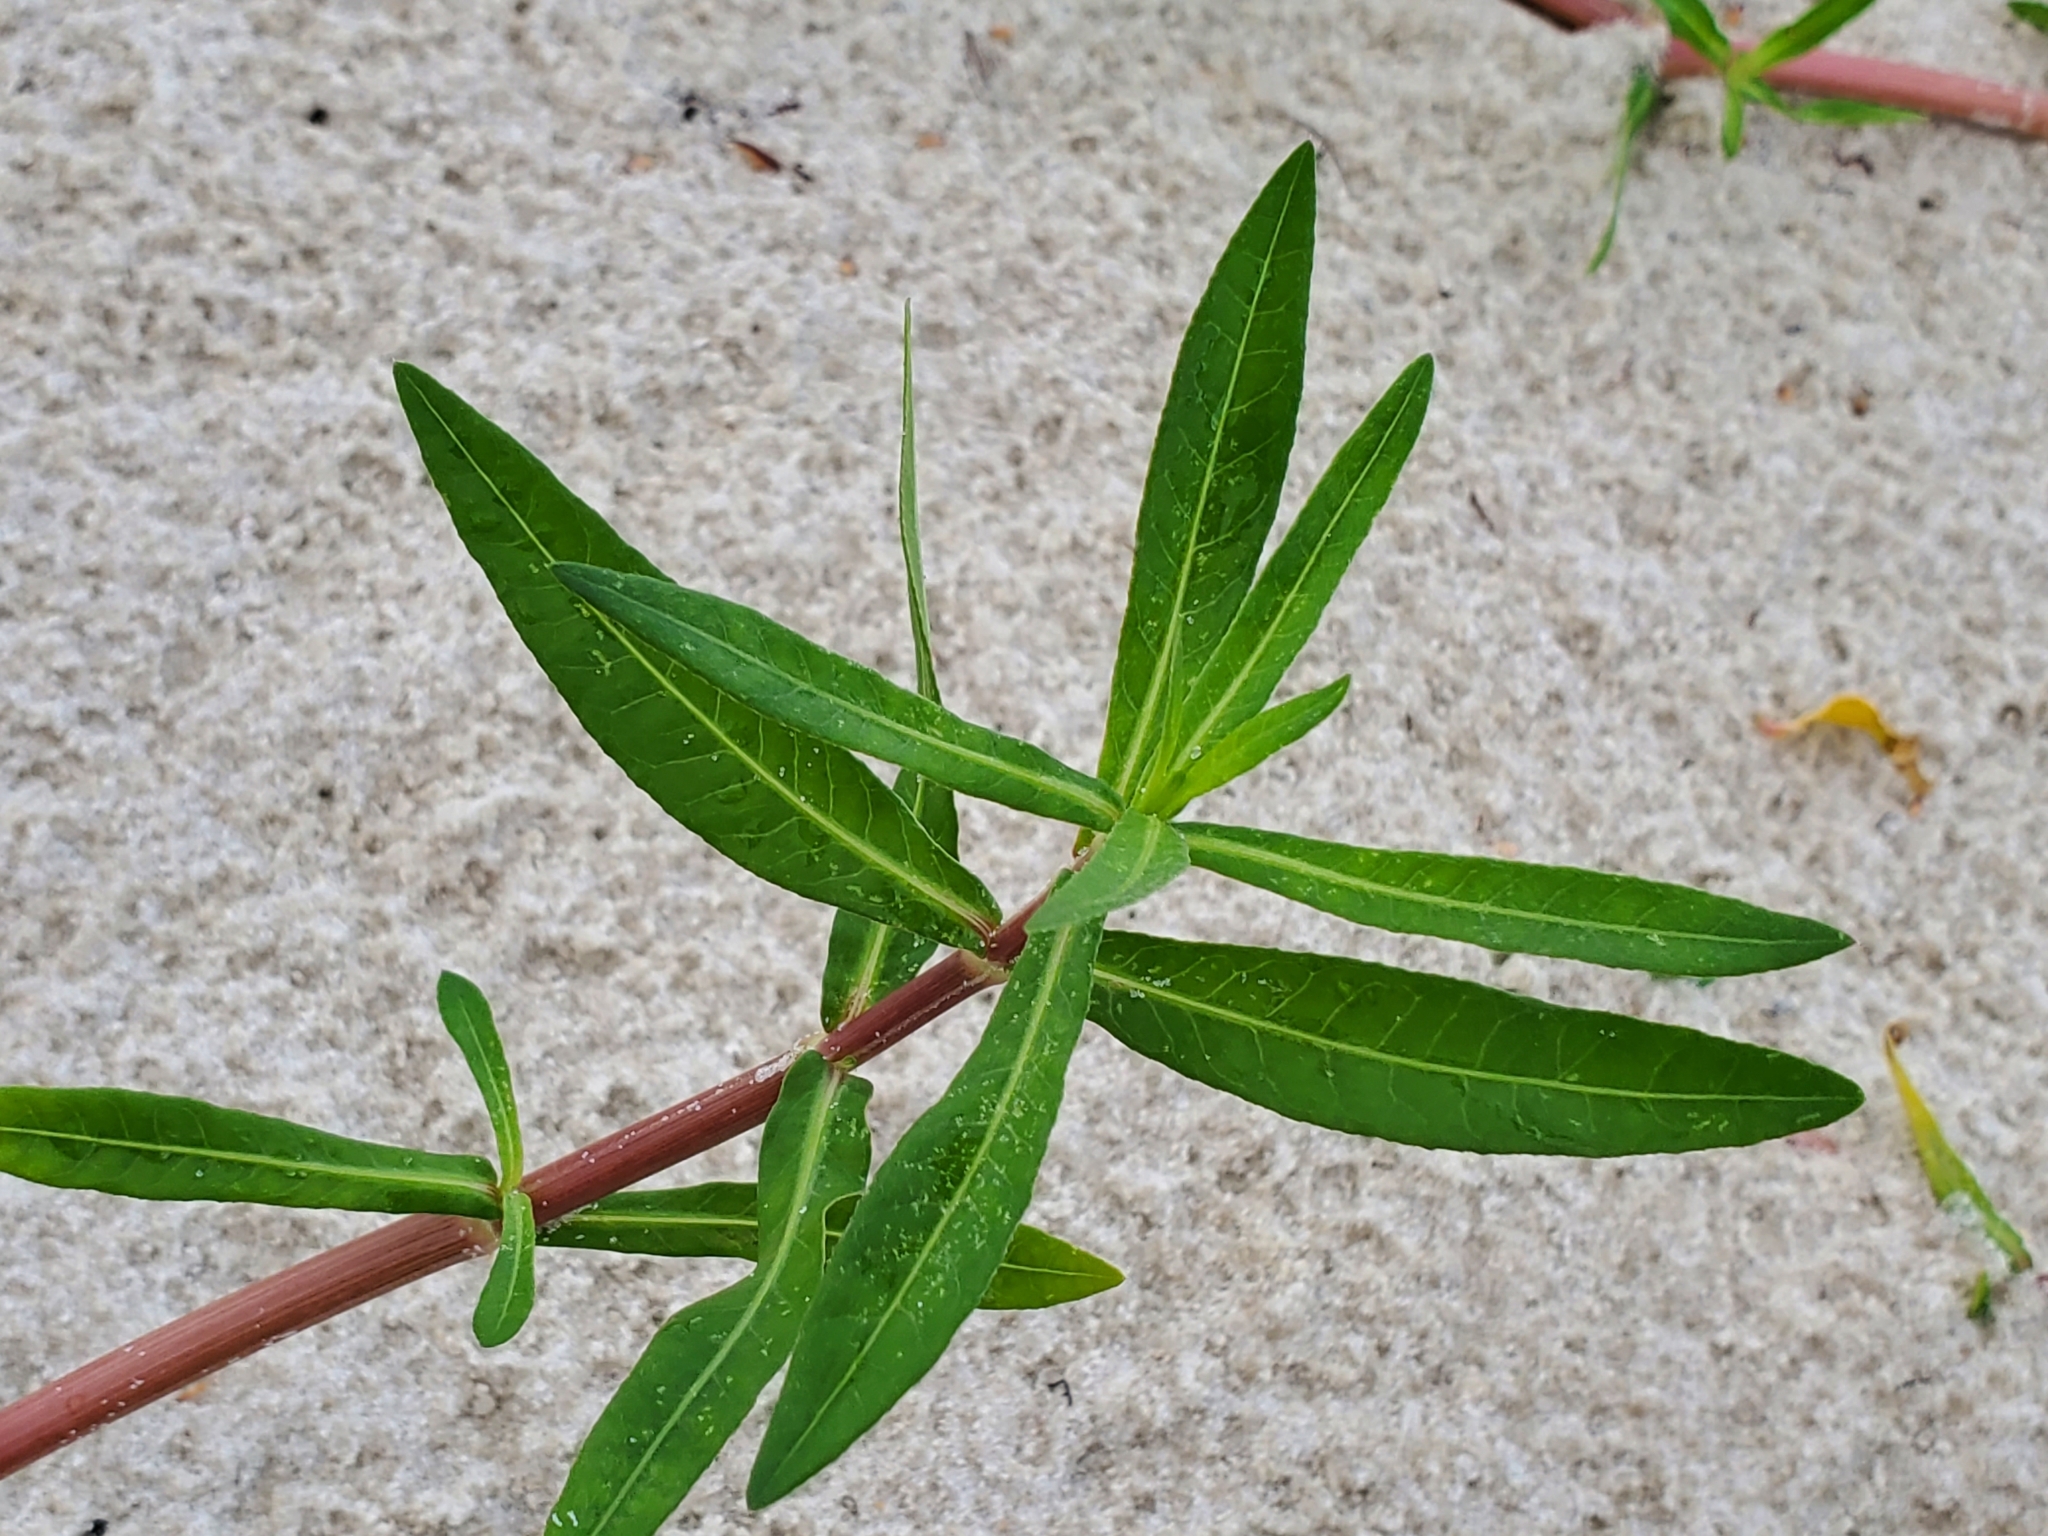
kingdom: Plantae
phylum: Tracheophyta
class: Magnoliopsida
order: Caryophyllales
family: Amaranthaceae
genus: Alternanthera
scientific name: Alternanthera philoxeroides
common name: Alligatorweed
